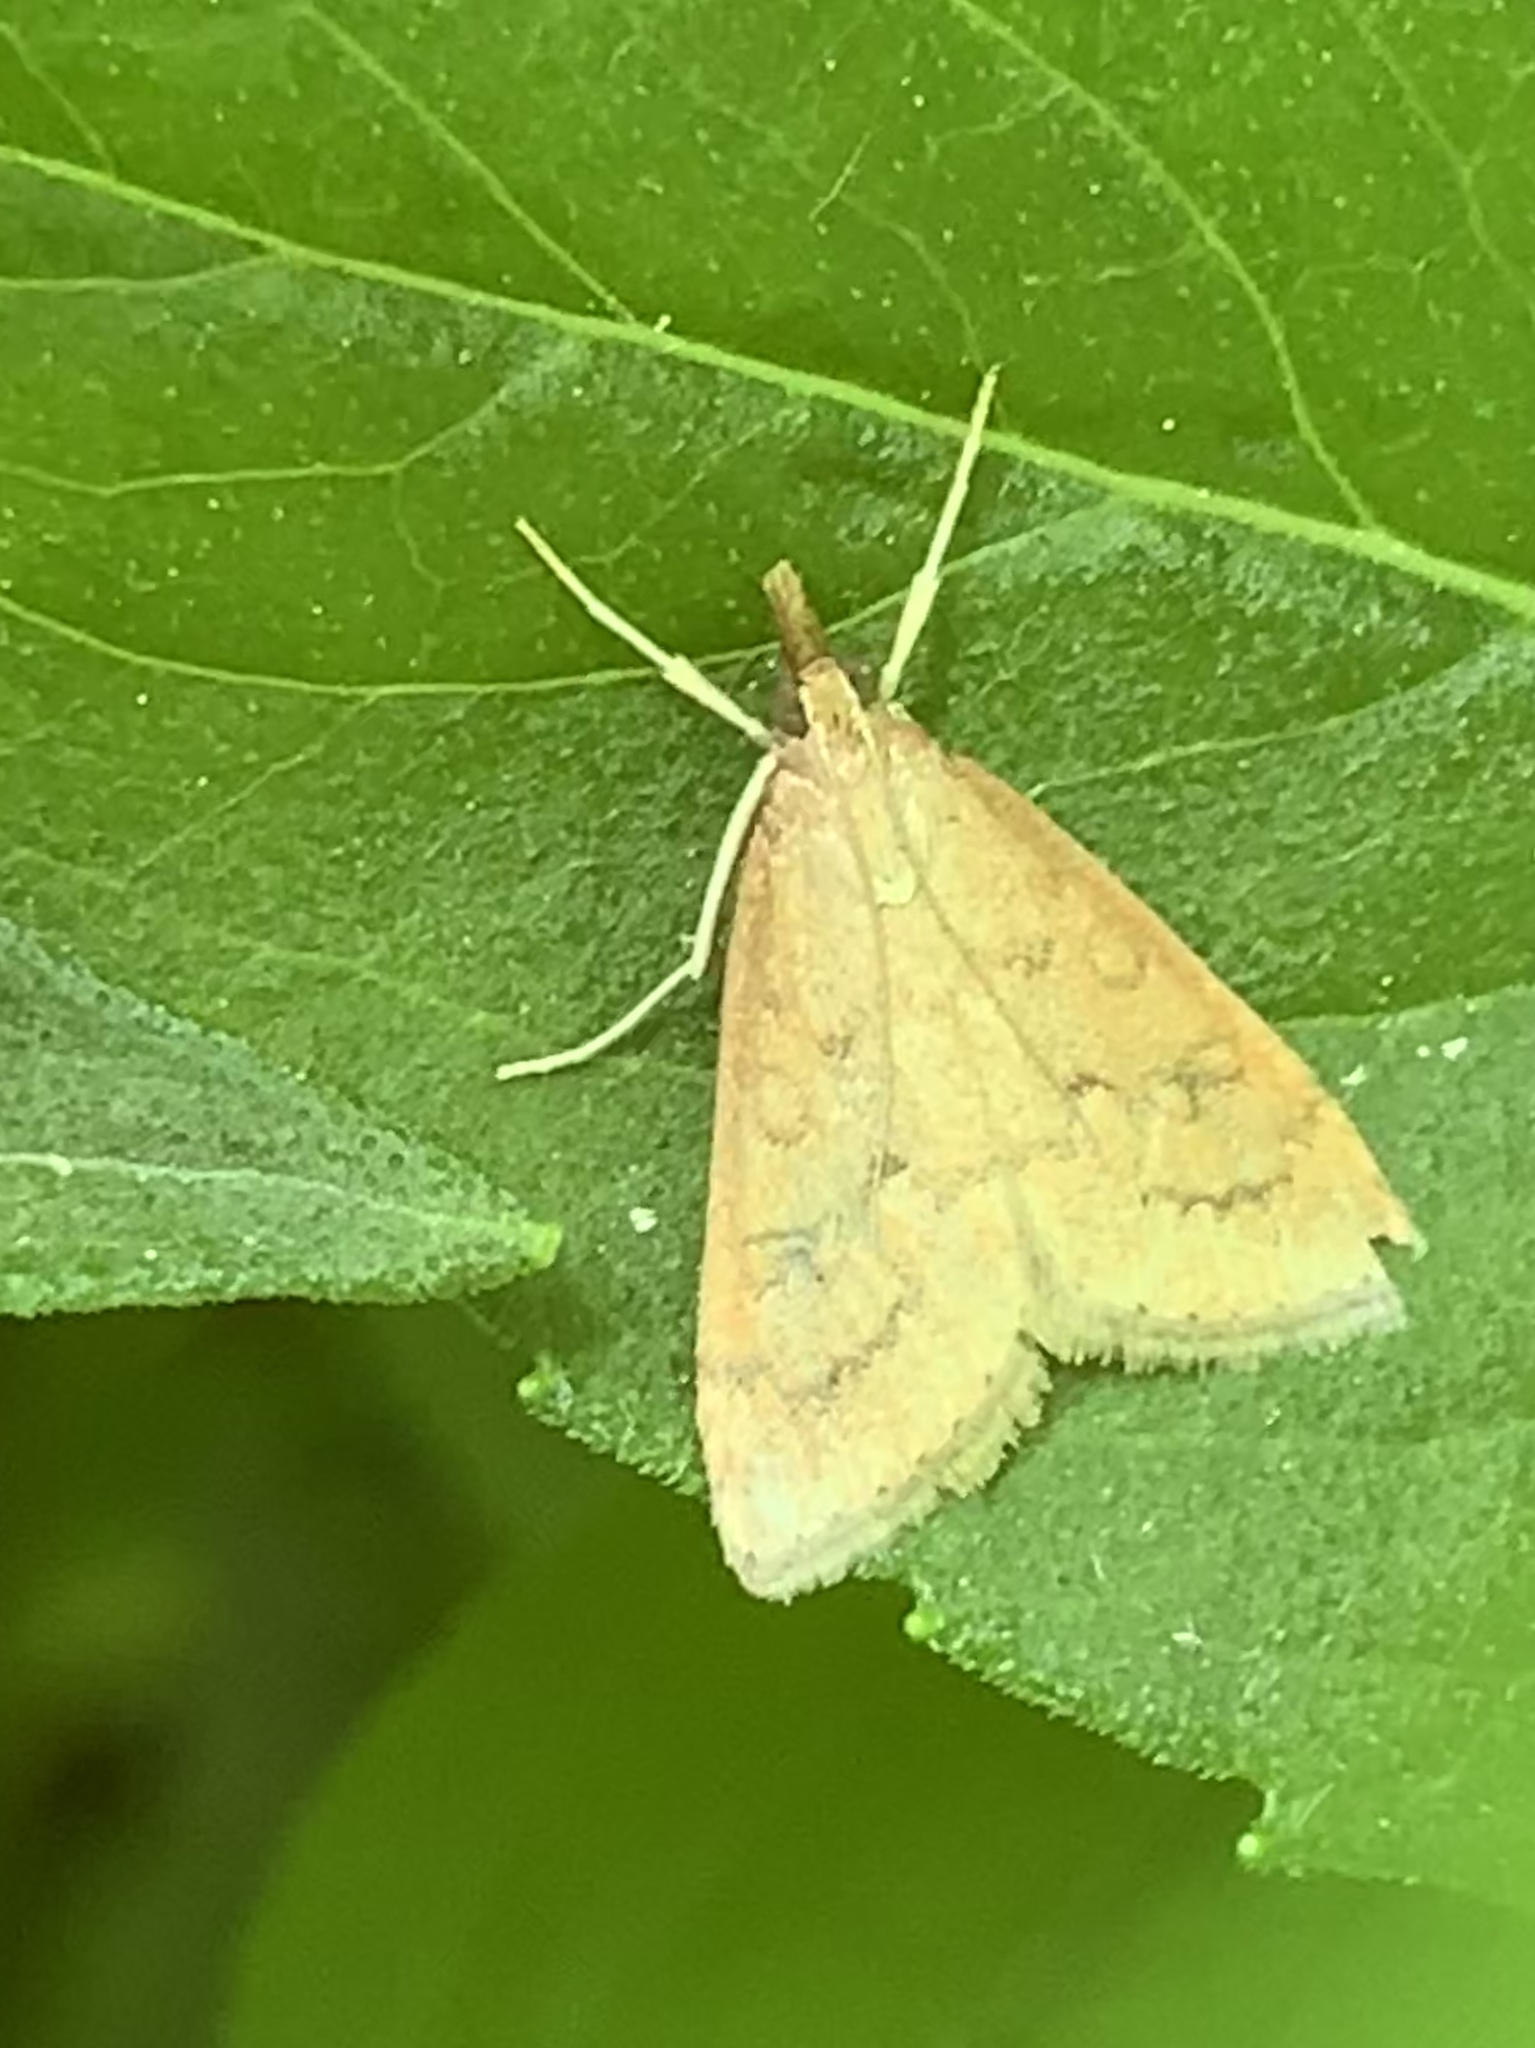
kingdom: Animalia
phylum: Arthropoda
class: Insecta
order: Lepidoptera
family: Crambidae
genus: Udea
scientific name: Udea rubigalis
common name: Celery leaftier moth
